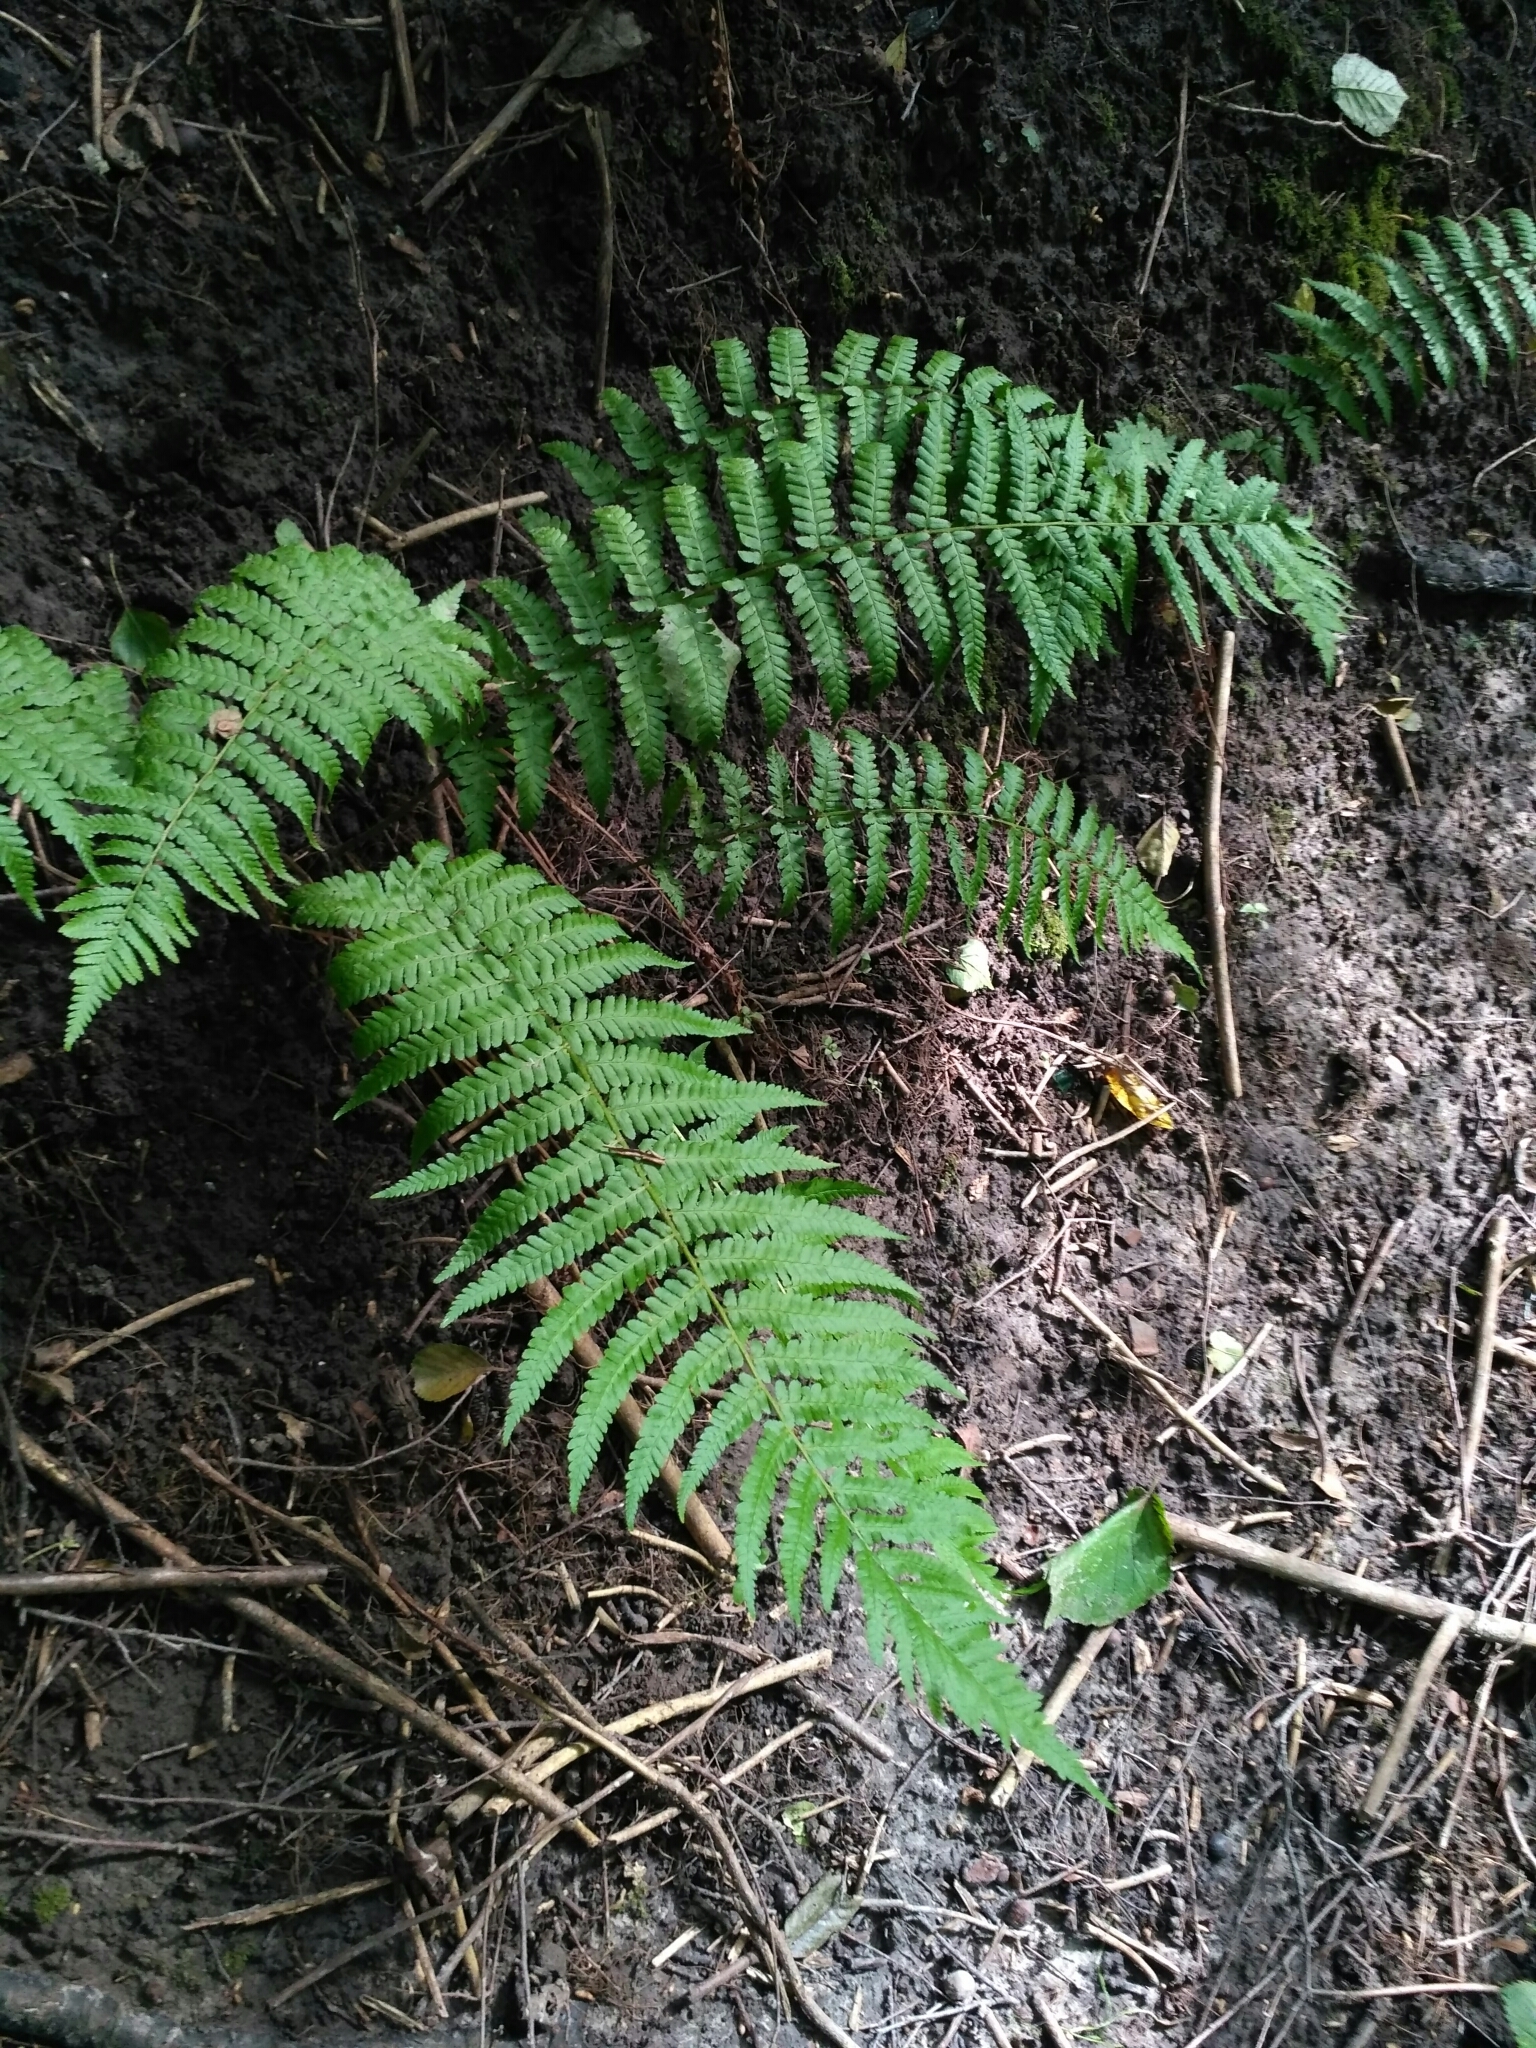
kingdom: Plantae
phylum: Tracheophyta
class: Polypodiopsida
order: Polypodiales
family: Dryopteridaceae
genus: Dryopteris
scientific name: Dryopteris filix-mas
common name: Male fern
